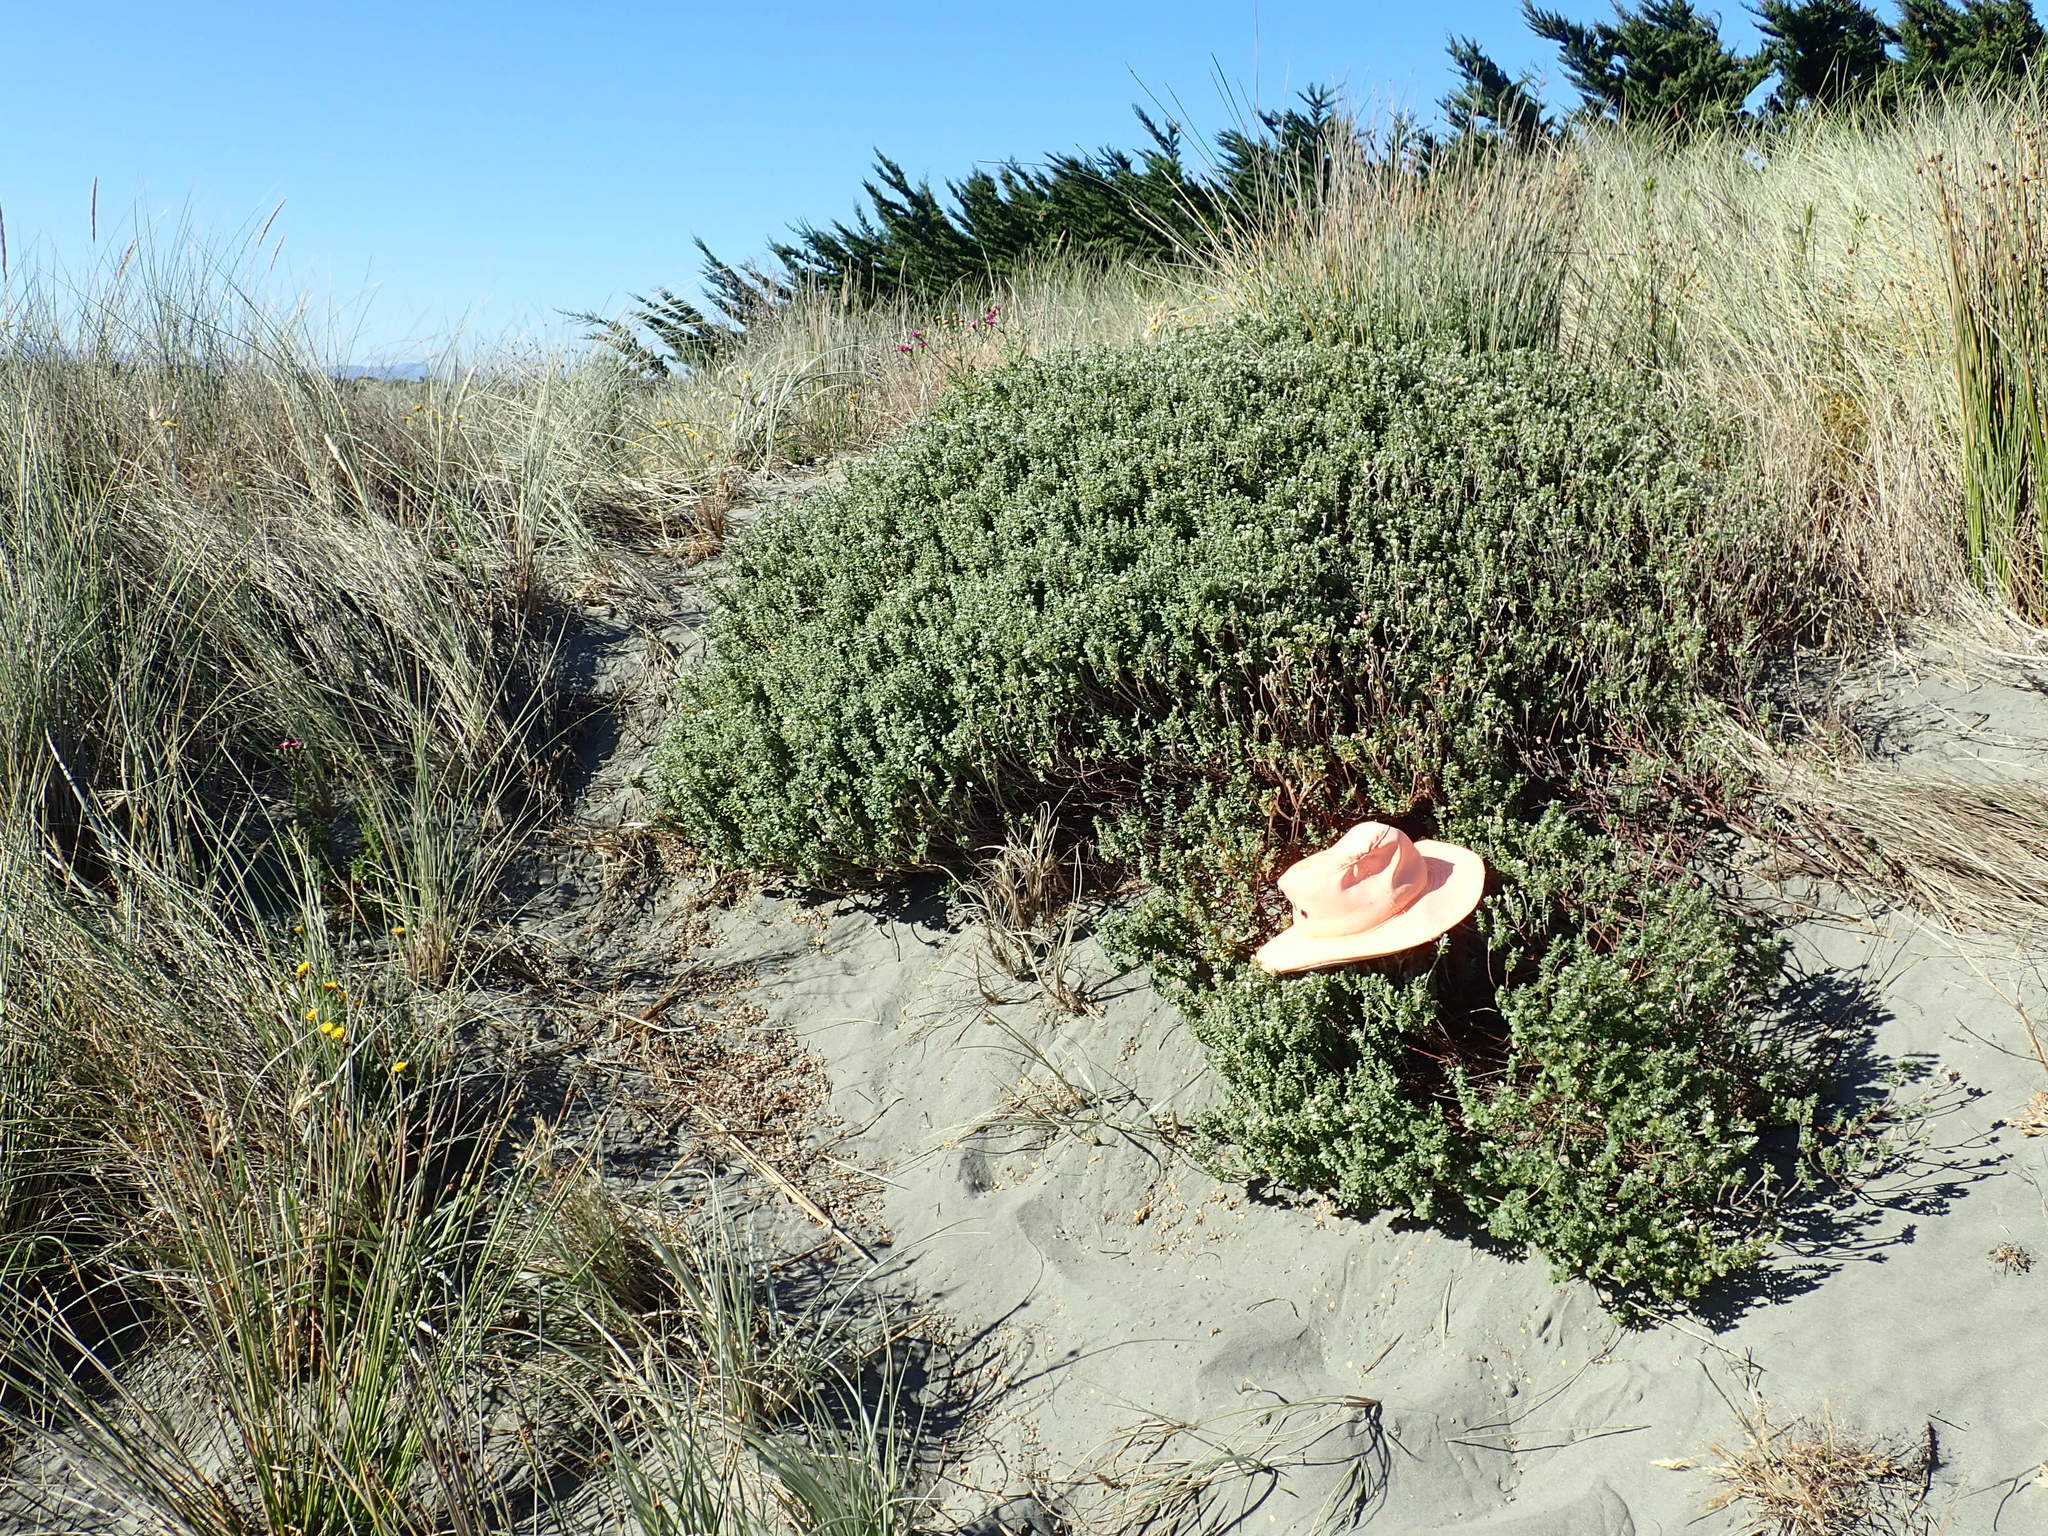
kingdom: Plantae
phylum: Tracheophyta
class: Magnoliopsida
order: Malvales
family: Thymelaeaceae
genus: Pimelea
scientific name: Pimelea villosa
